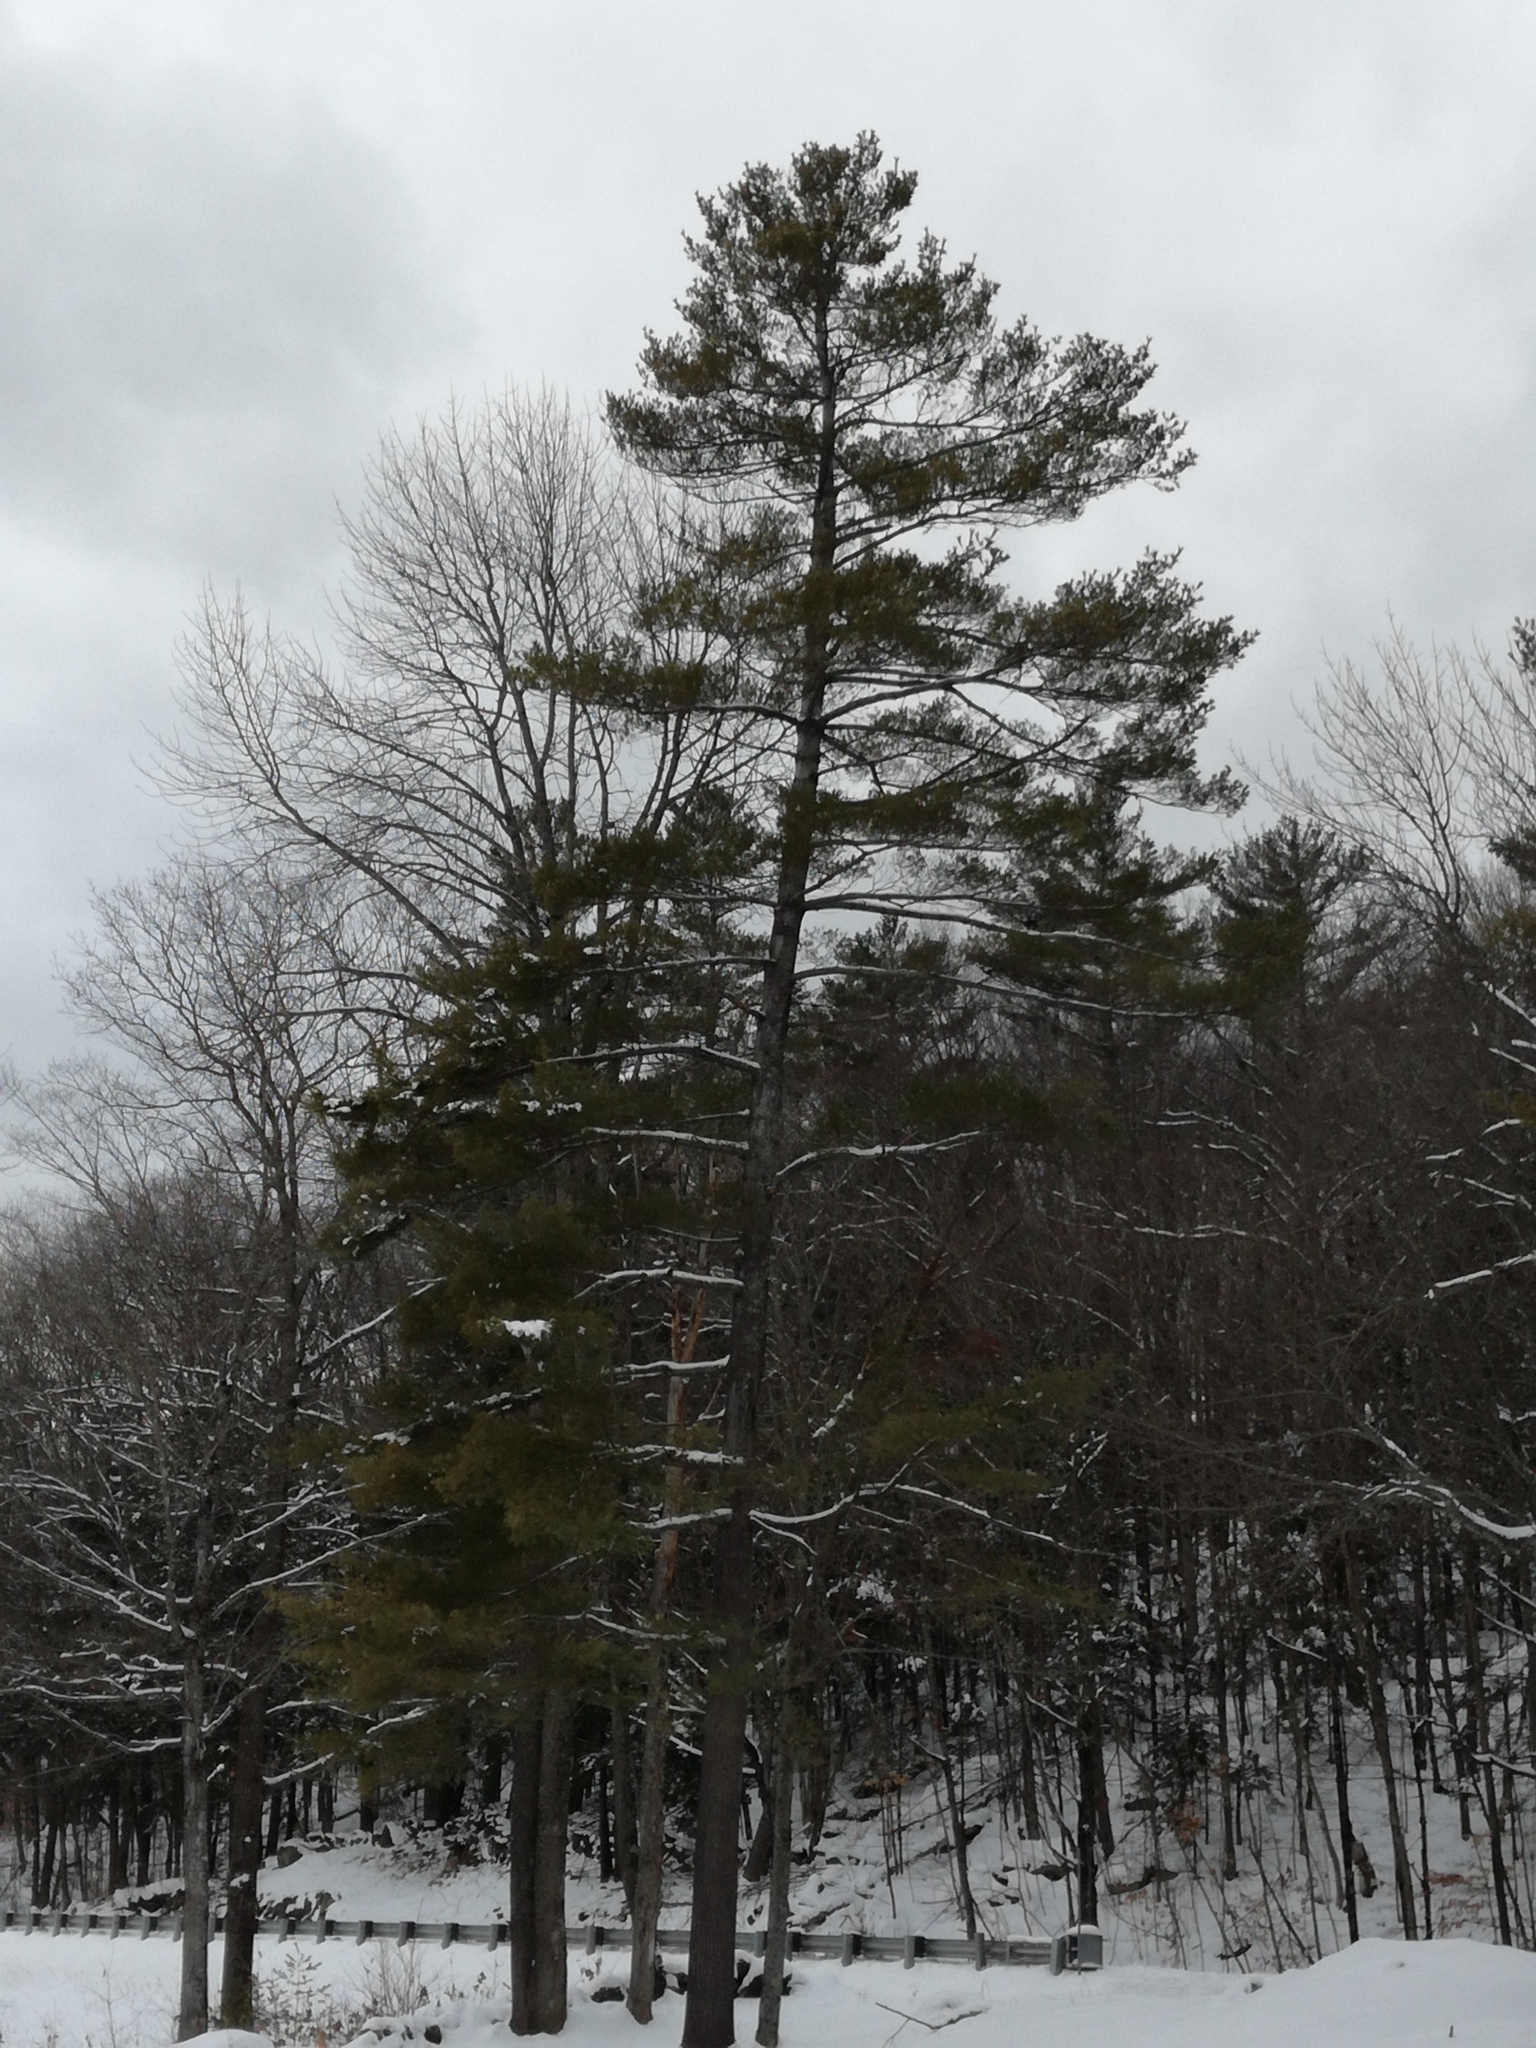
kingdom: Plantae
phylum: Tracheophyta
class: Pinopsida
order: Pinales
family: Pinaceae
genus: Pinus
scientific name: Pinus strobus
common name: Weymouth pine
